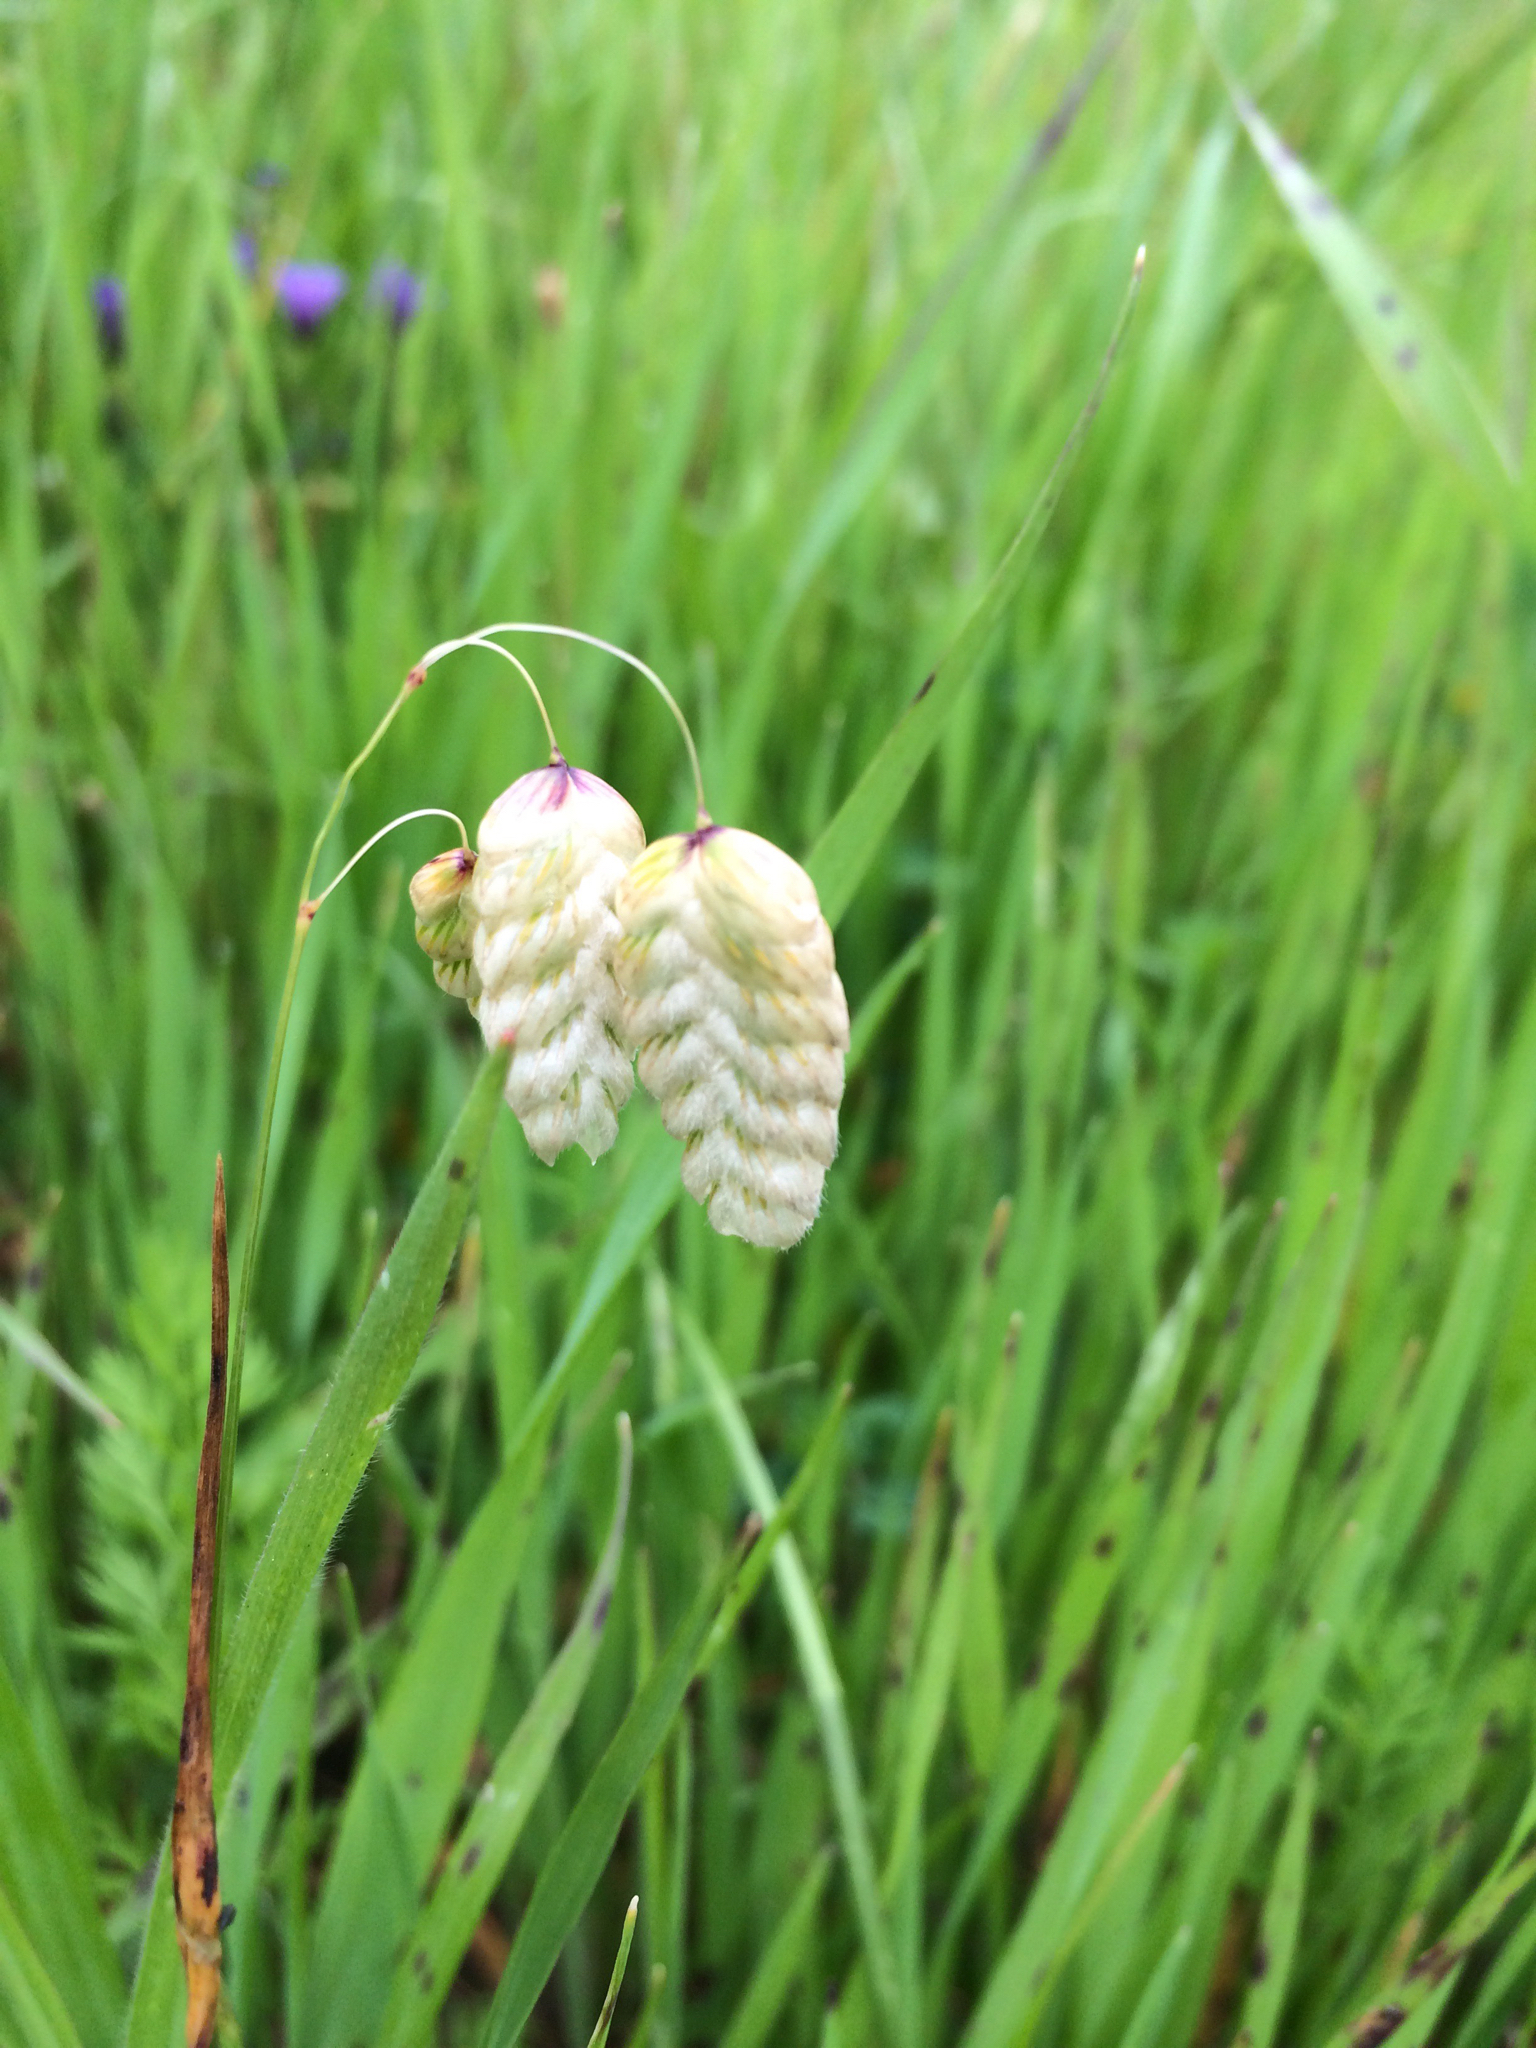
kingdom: Plantae
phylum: Tracheophyta
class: Liliopsida
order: Poales
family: Poaceae
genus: Briza
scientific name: Briza maxima
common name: Big quakinggrass
